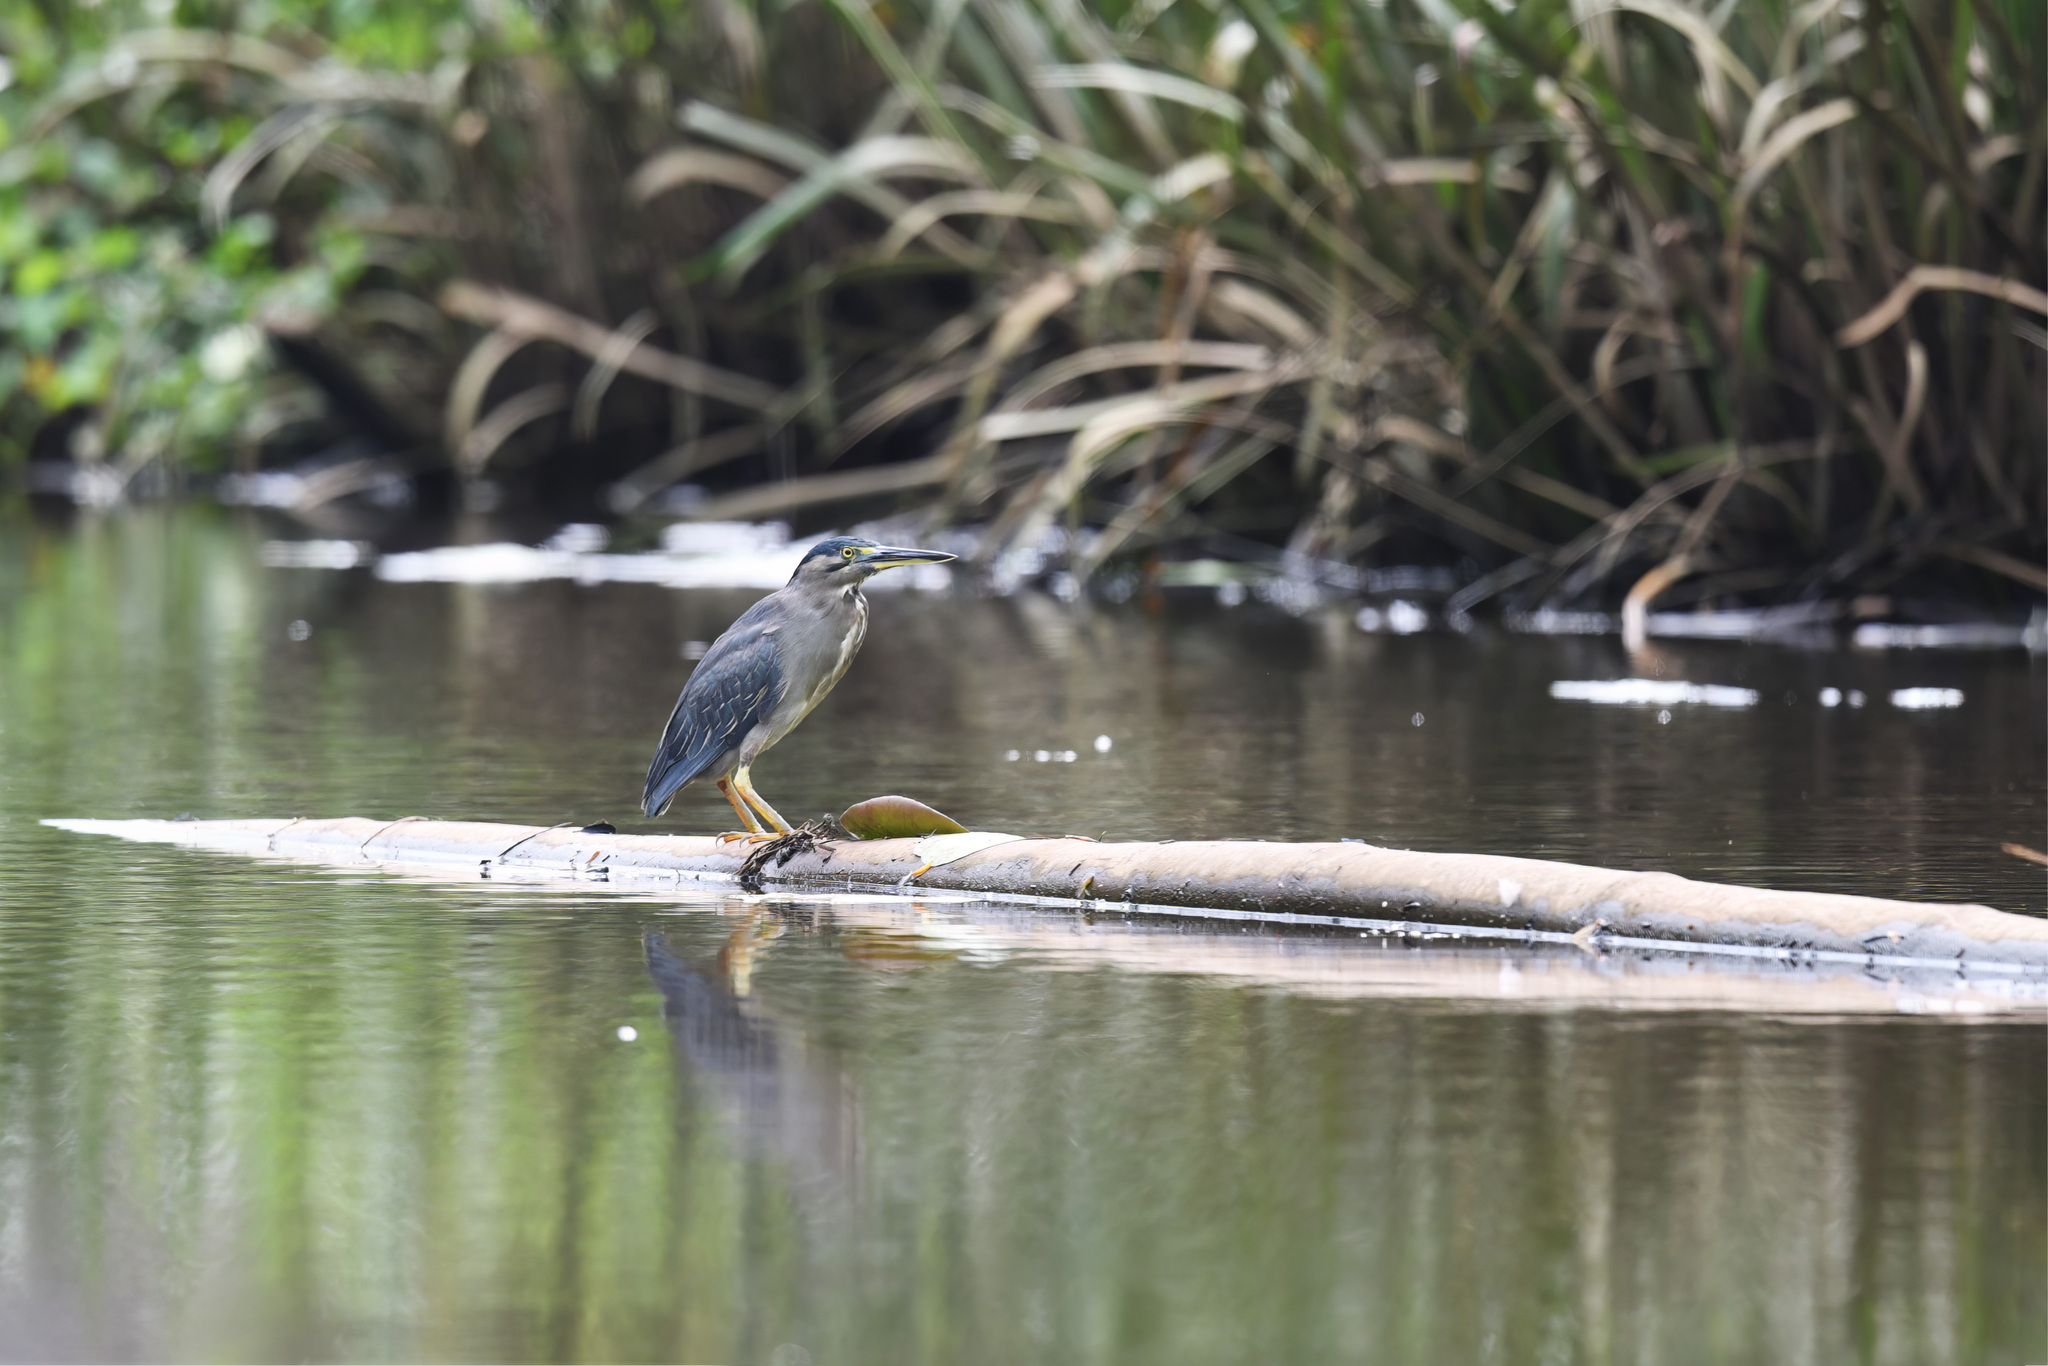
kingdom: Animalia
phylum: Chordata
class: Aves
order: Pelecaniformes
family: Ardeidae
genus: Butorides
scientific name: Butorides striata
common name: Striated heron
